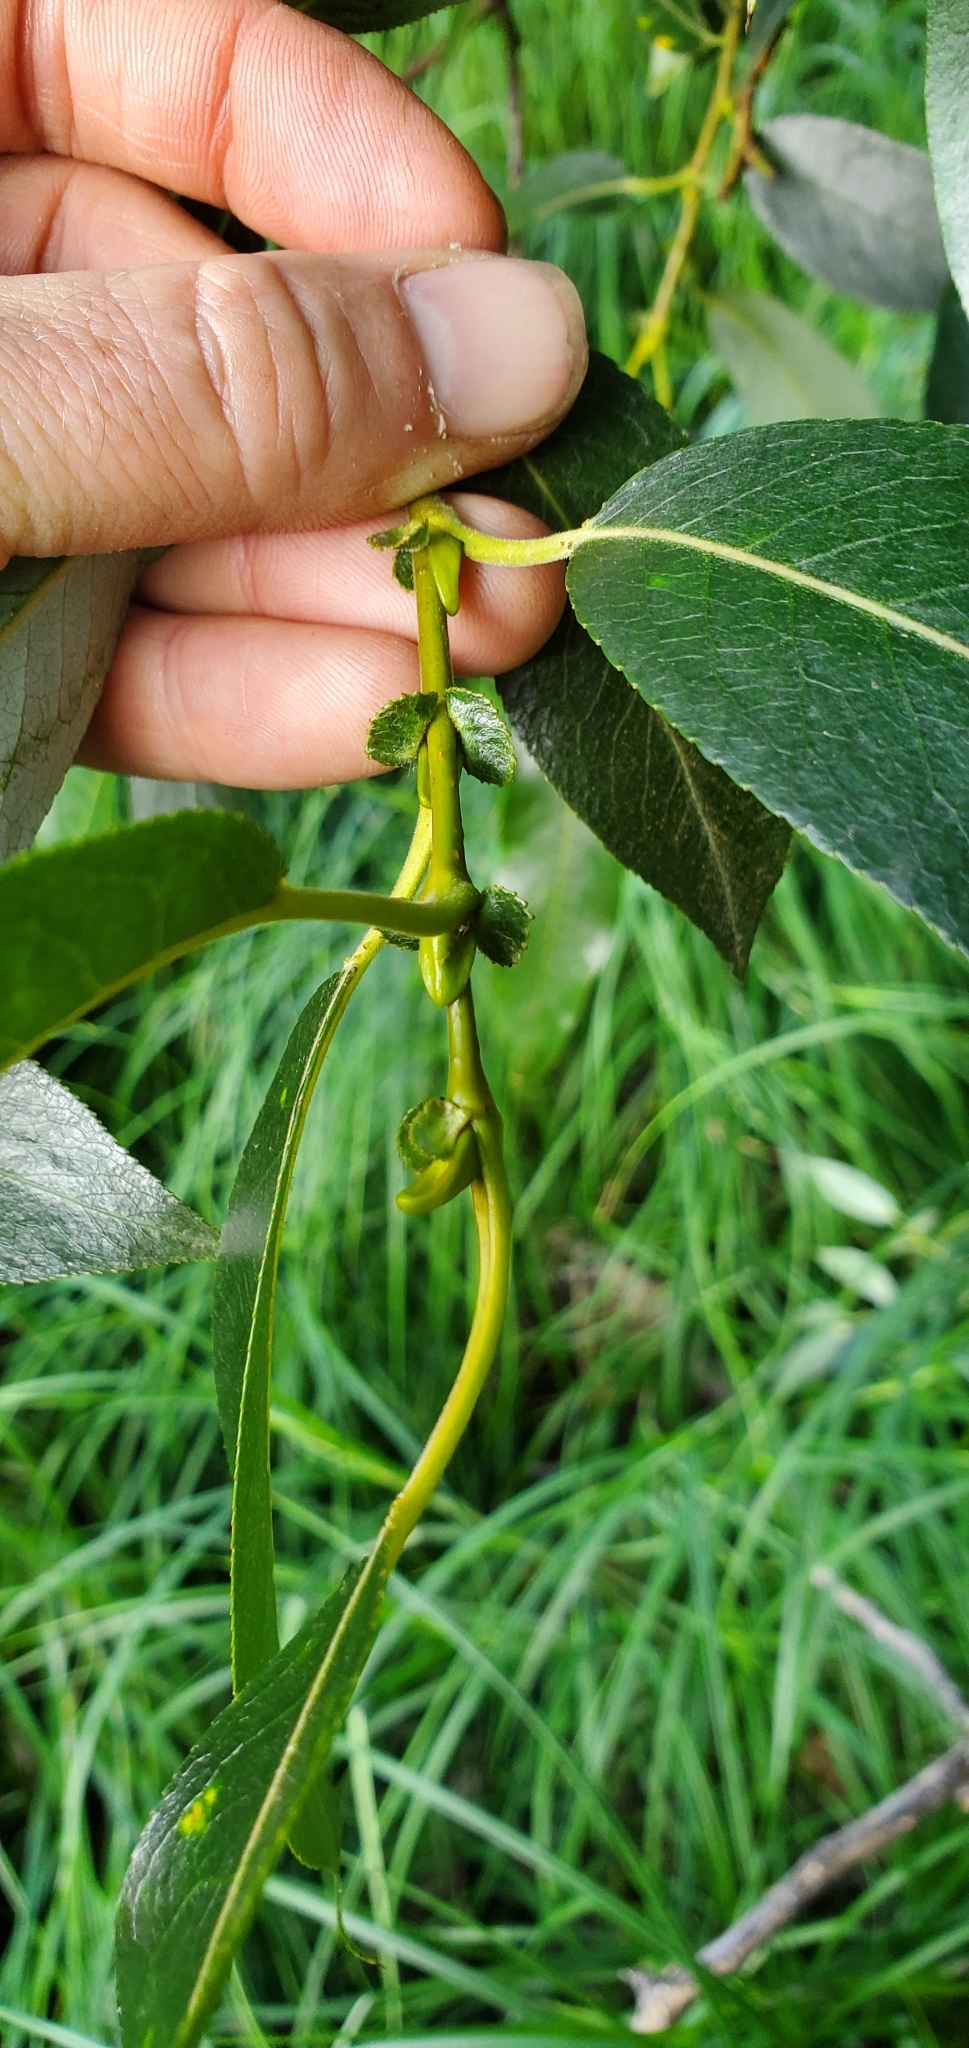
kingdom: Plantae
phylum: Tracheophyta
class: Magnoliopsida
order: Malpighiales
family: Salicaceae
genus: Salix
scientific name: Salix lucida
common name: Shining willow
